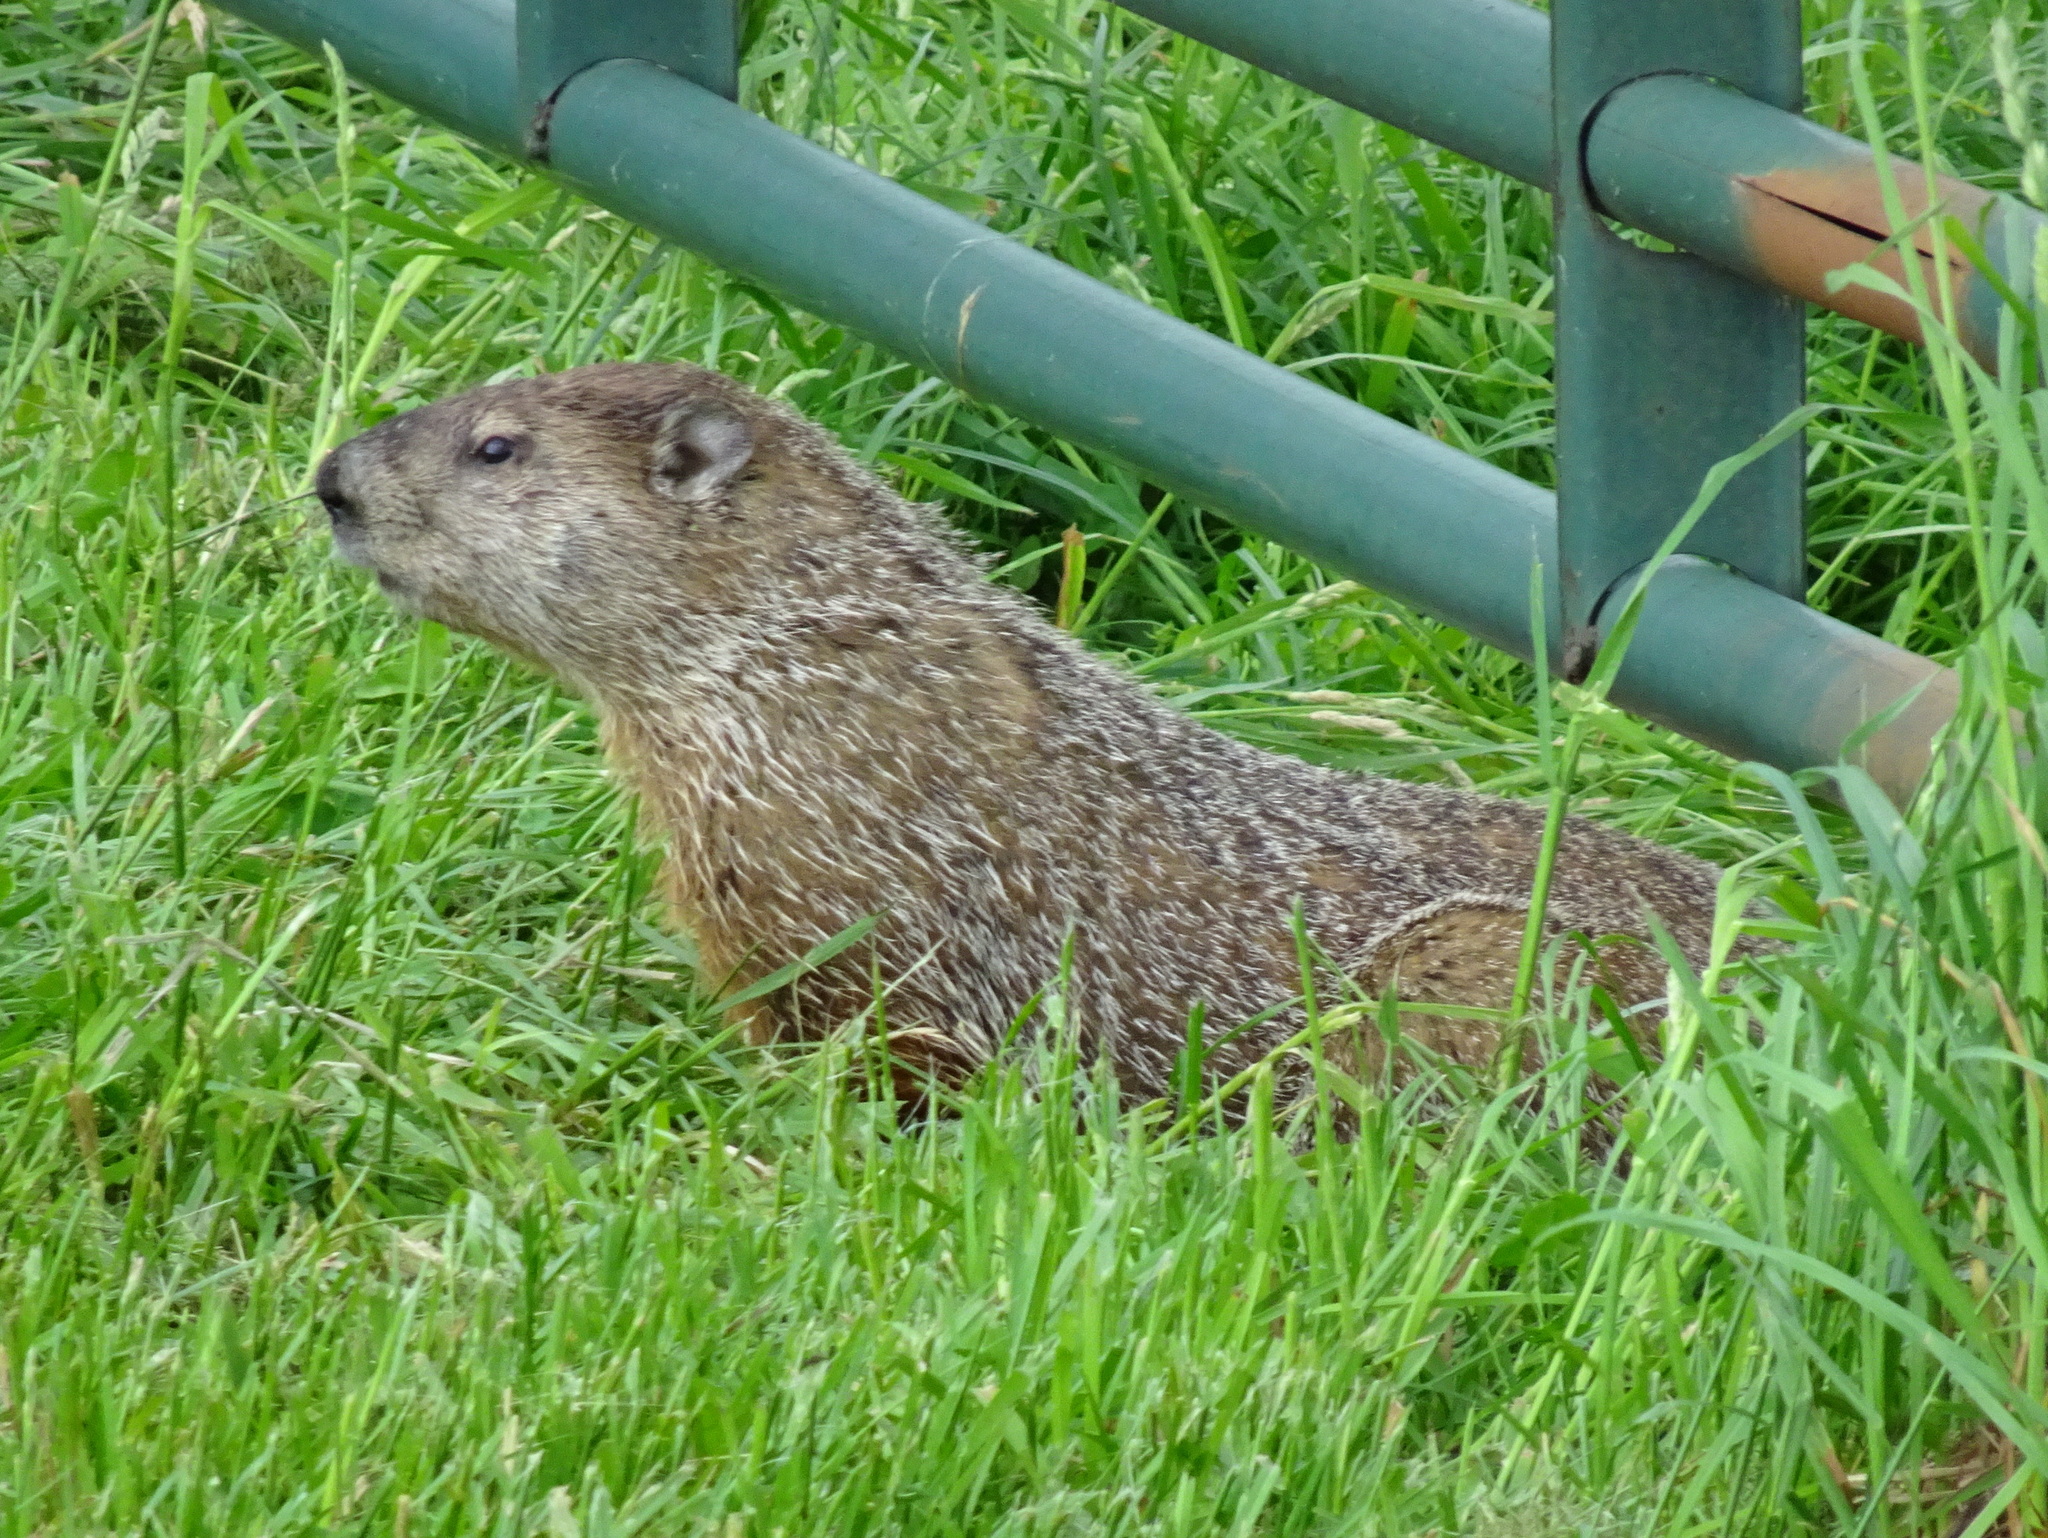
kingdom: Animalia
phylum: Chordata
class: Mammalia
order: Rodentia
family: Sciuridae
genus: Marmota
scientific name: Marmota monax
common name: Groundhog
